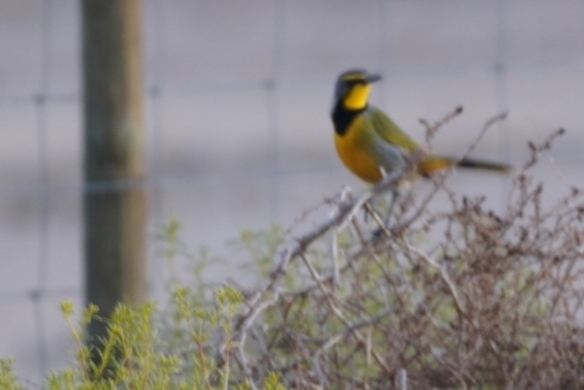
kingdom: Animalia
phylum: Chordata
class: Aves
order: Passeriformes
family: Malaconotidae
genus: Telophorus
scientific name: Telophorus zeylonus
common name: Bokmakierie
